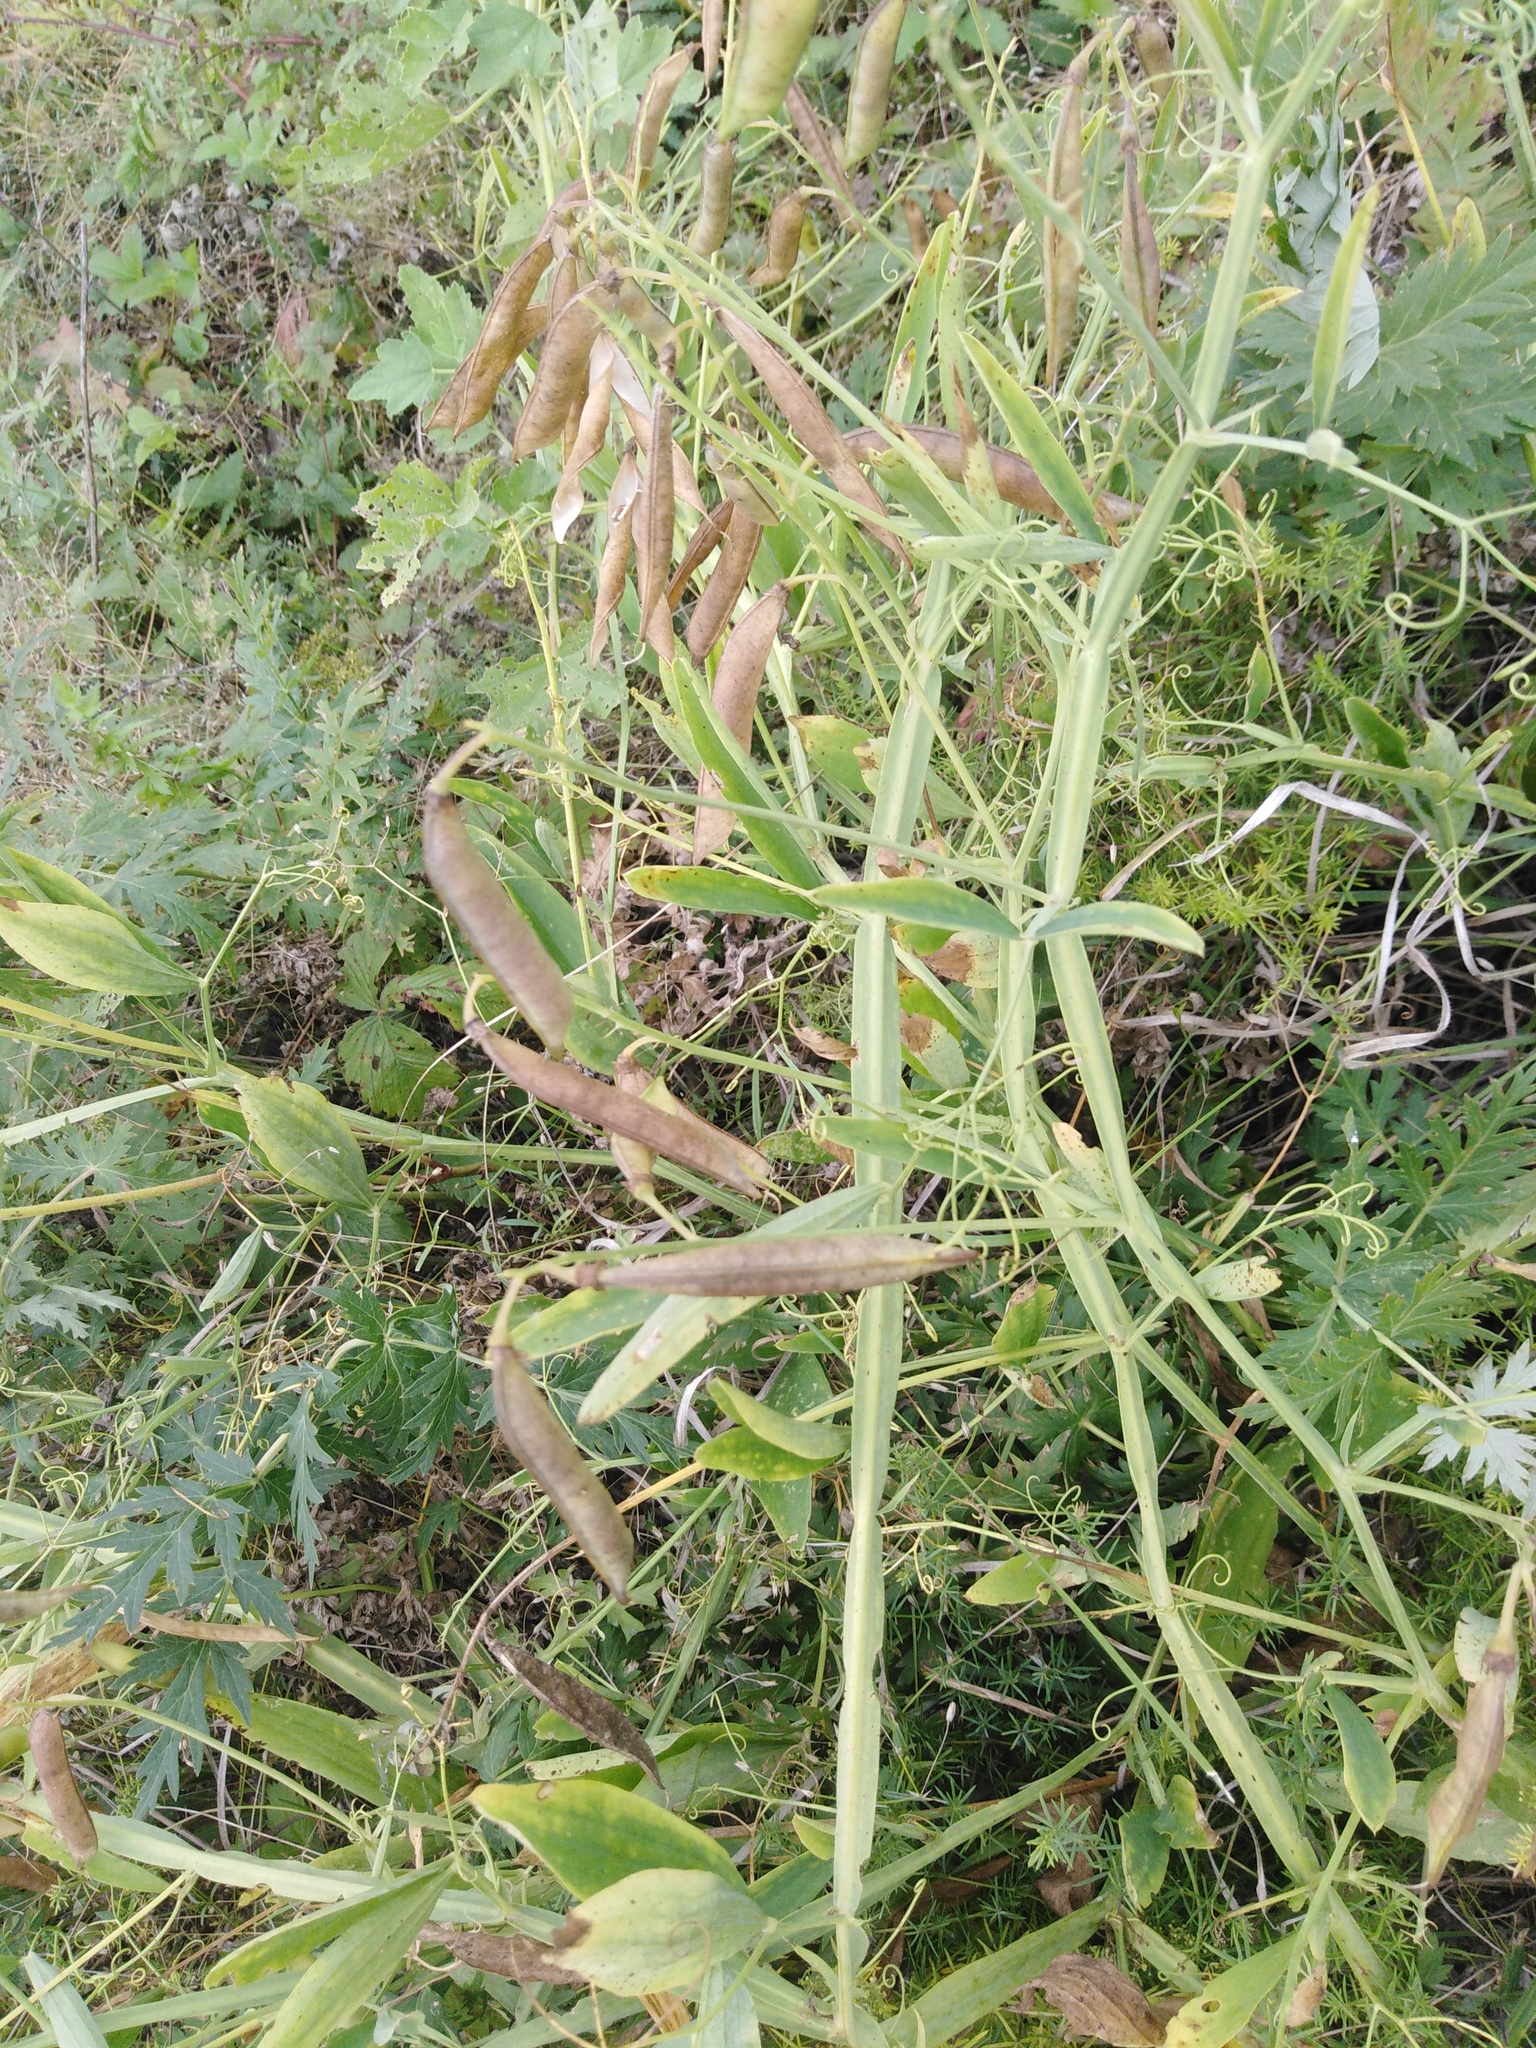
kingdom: Plantae
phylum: Tracheophyta
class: Magnoliopsida
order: Fabales
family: Fabaceae
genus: Lathyrus
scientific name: Lathyrus sylvestris
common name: Flat pea
